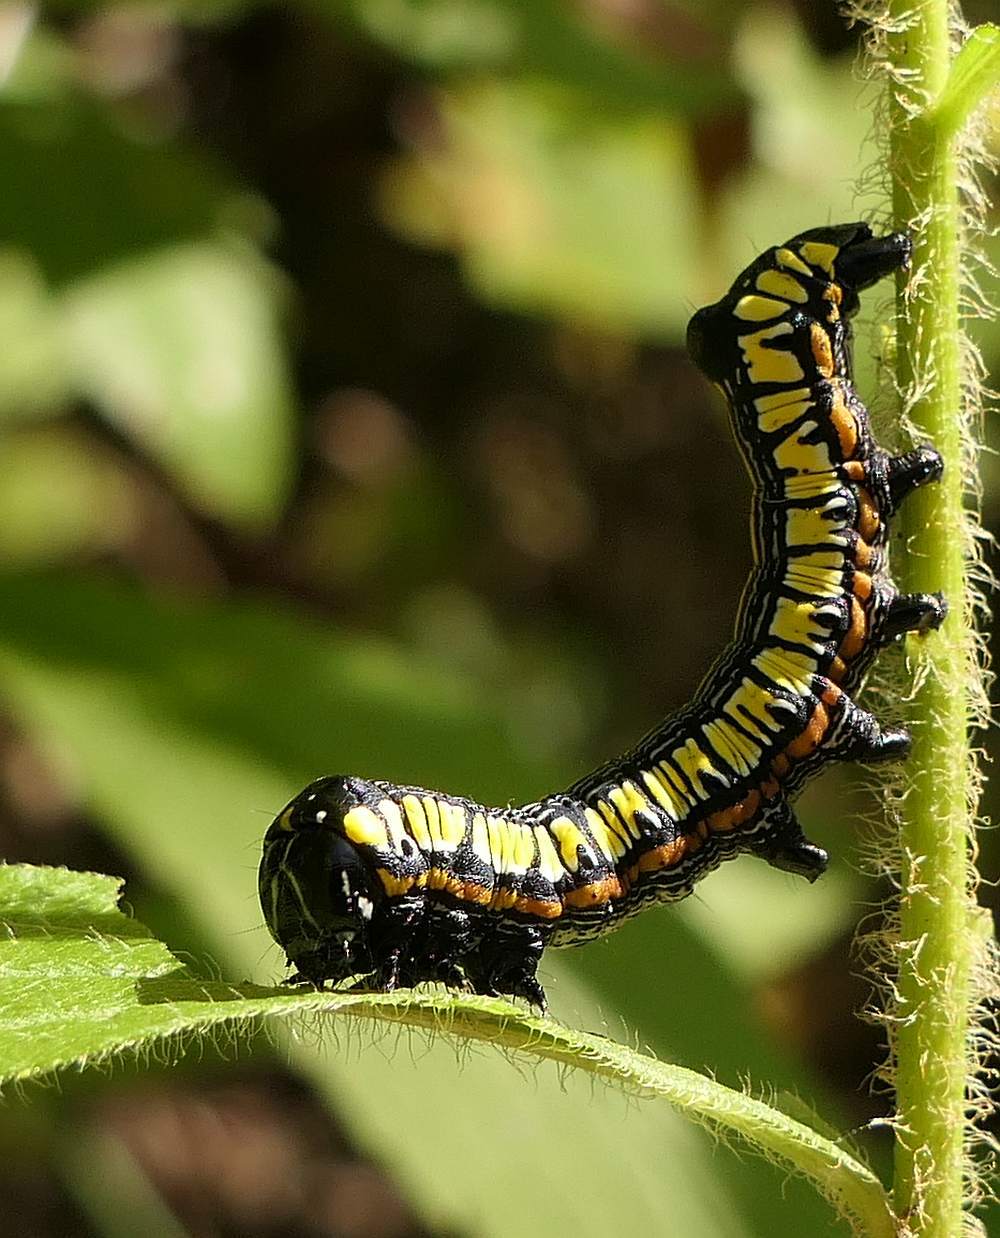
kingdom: Animalia
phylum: Arthropoda
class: Insecta
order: Lepidoptera
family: Noctuidae
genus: Cucullia
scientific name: Cucullia convexipennis
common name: Brown-hooded owlet
